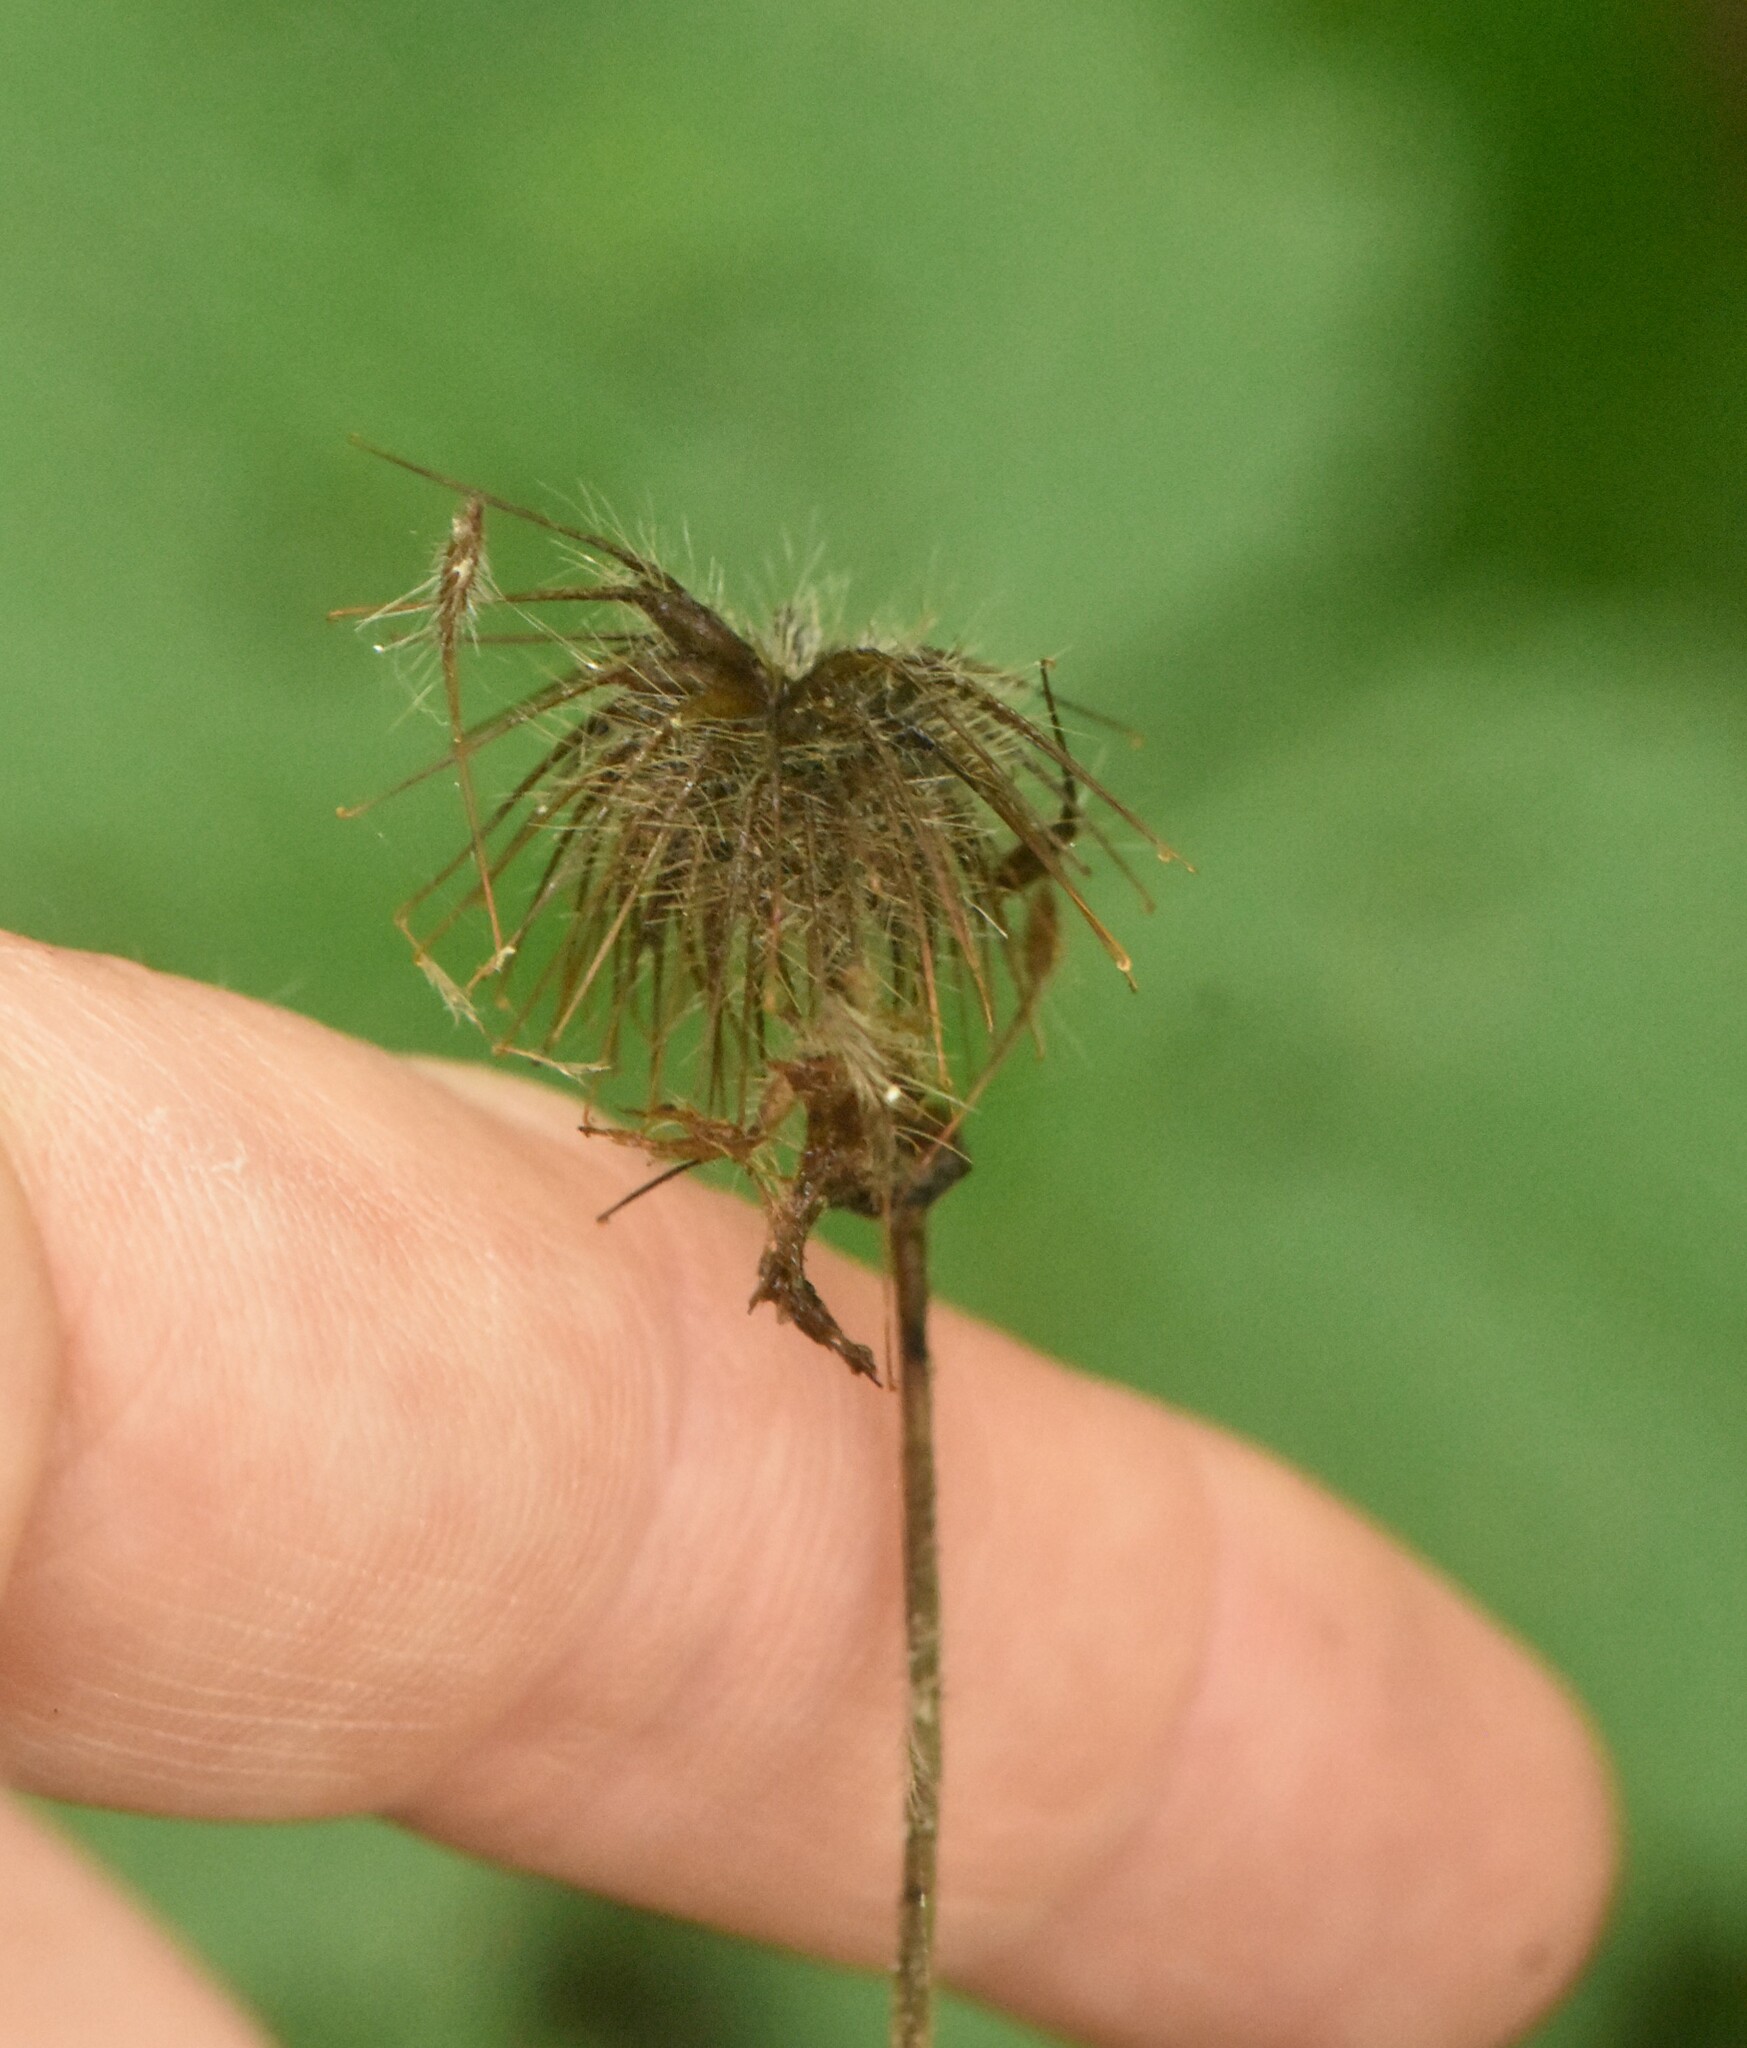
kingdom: Plantae
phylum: Tracheophyta
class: Magnoliopsida
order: Rosales
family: Rosaceae
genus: Geum
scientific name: Geum rivale
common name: Water avens
